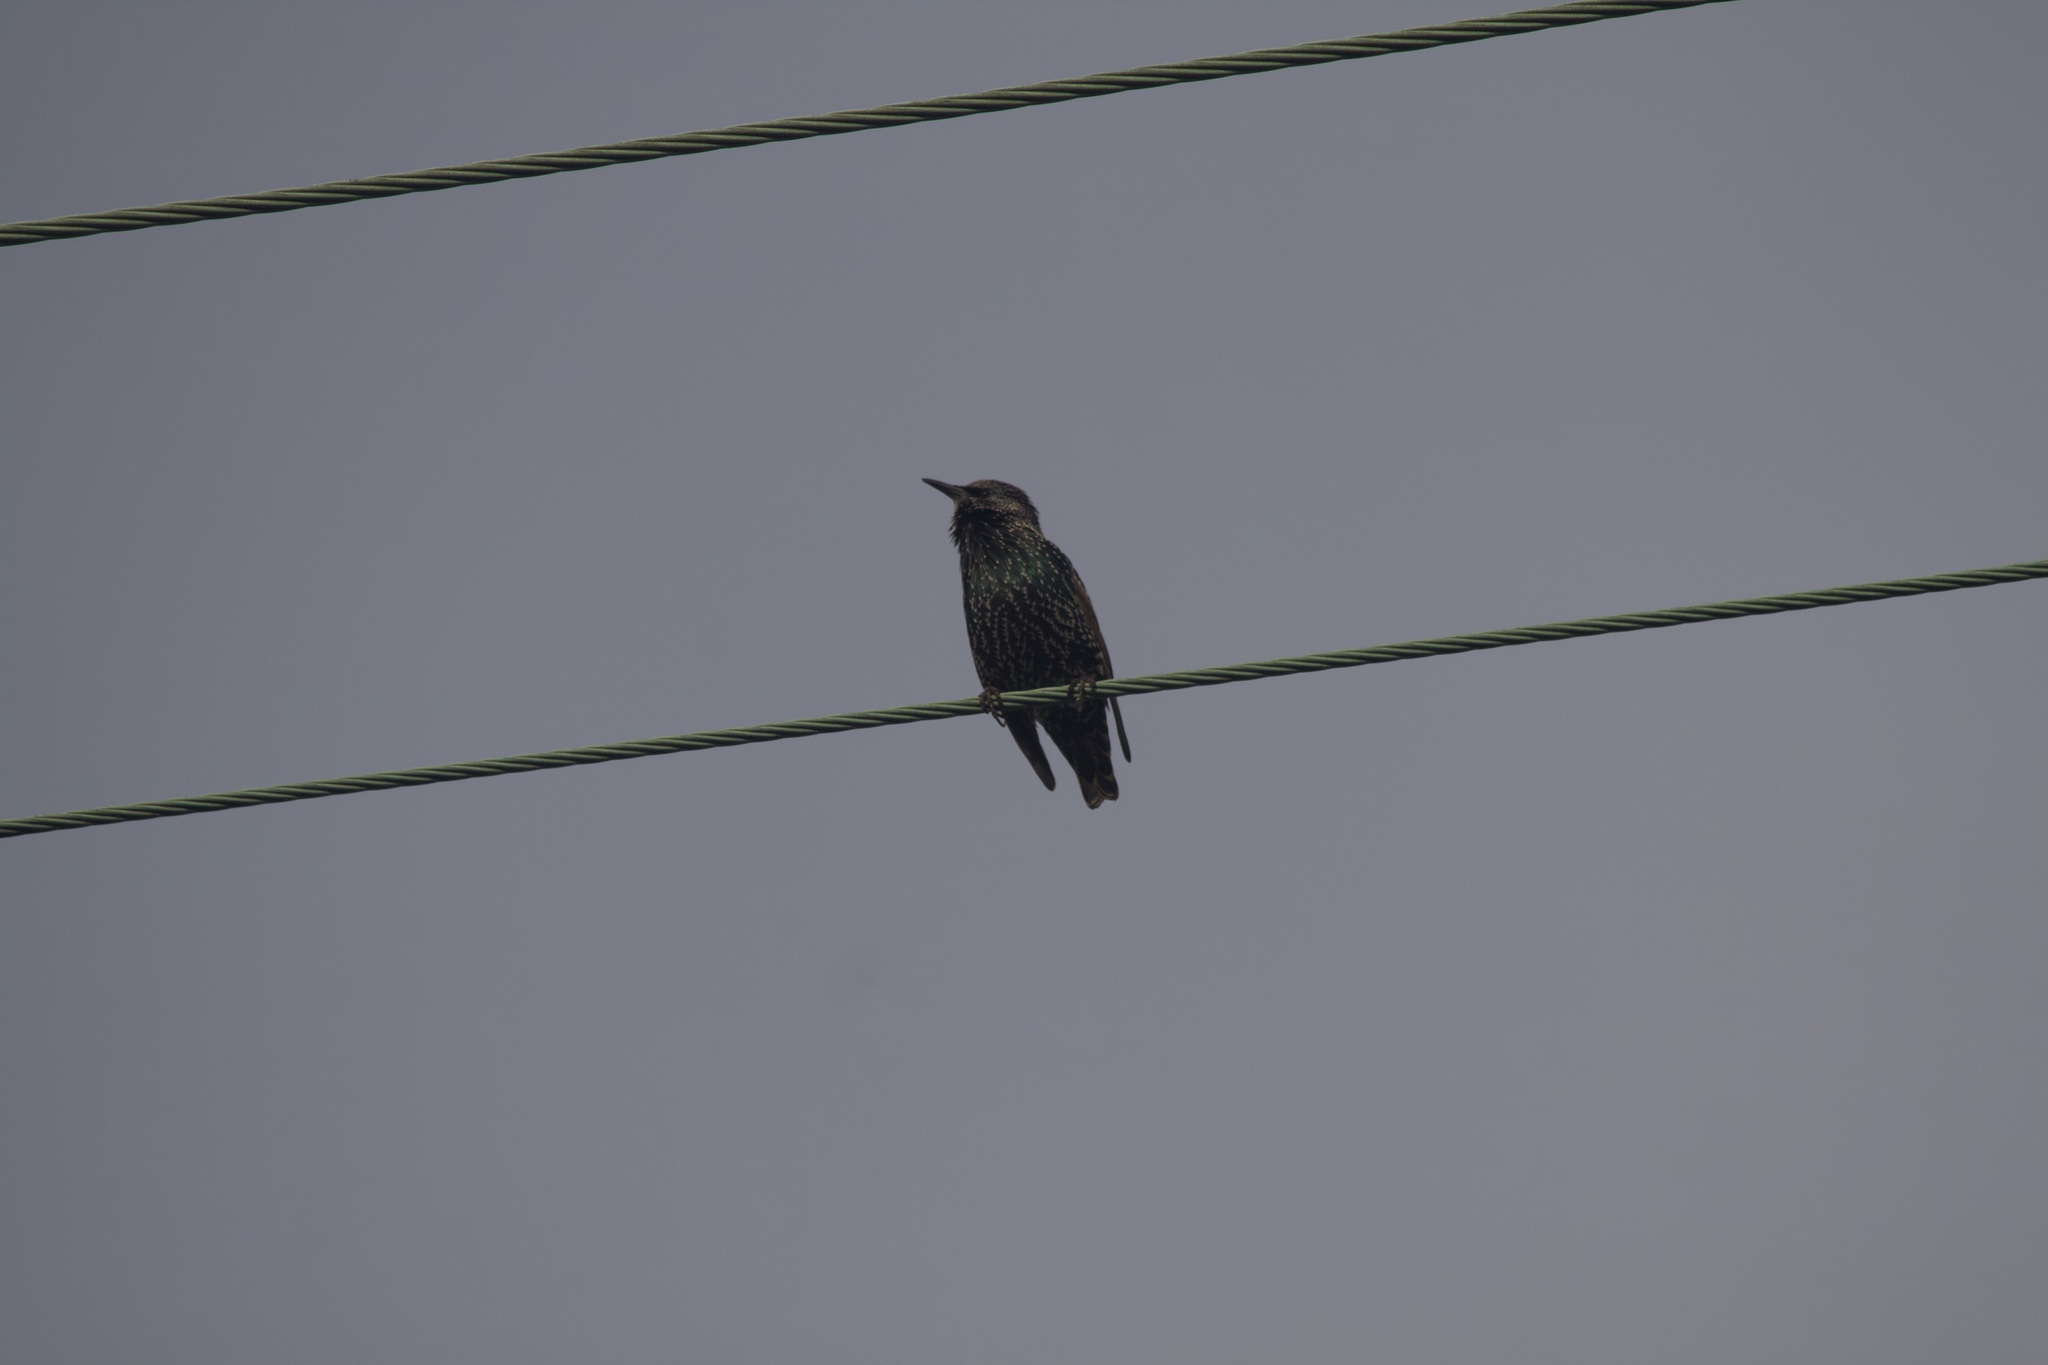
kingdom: Animalia
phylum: Chordata
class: Aves
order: Passeriformes
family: Sturnidae
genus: Sturnus
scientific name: Sturnus vulgaris
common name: Common starling
